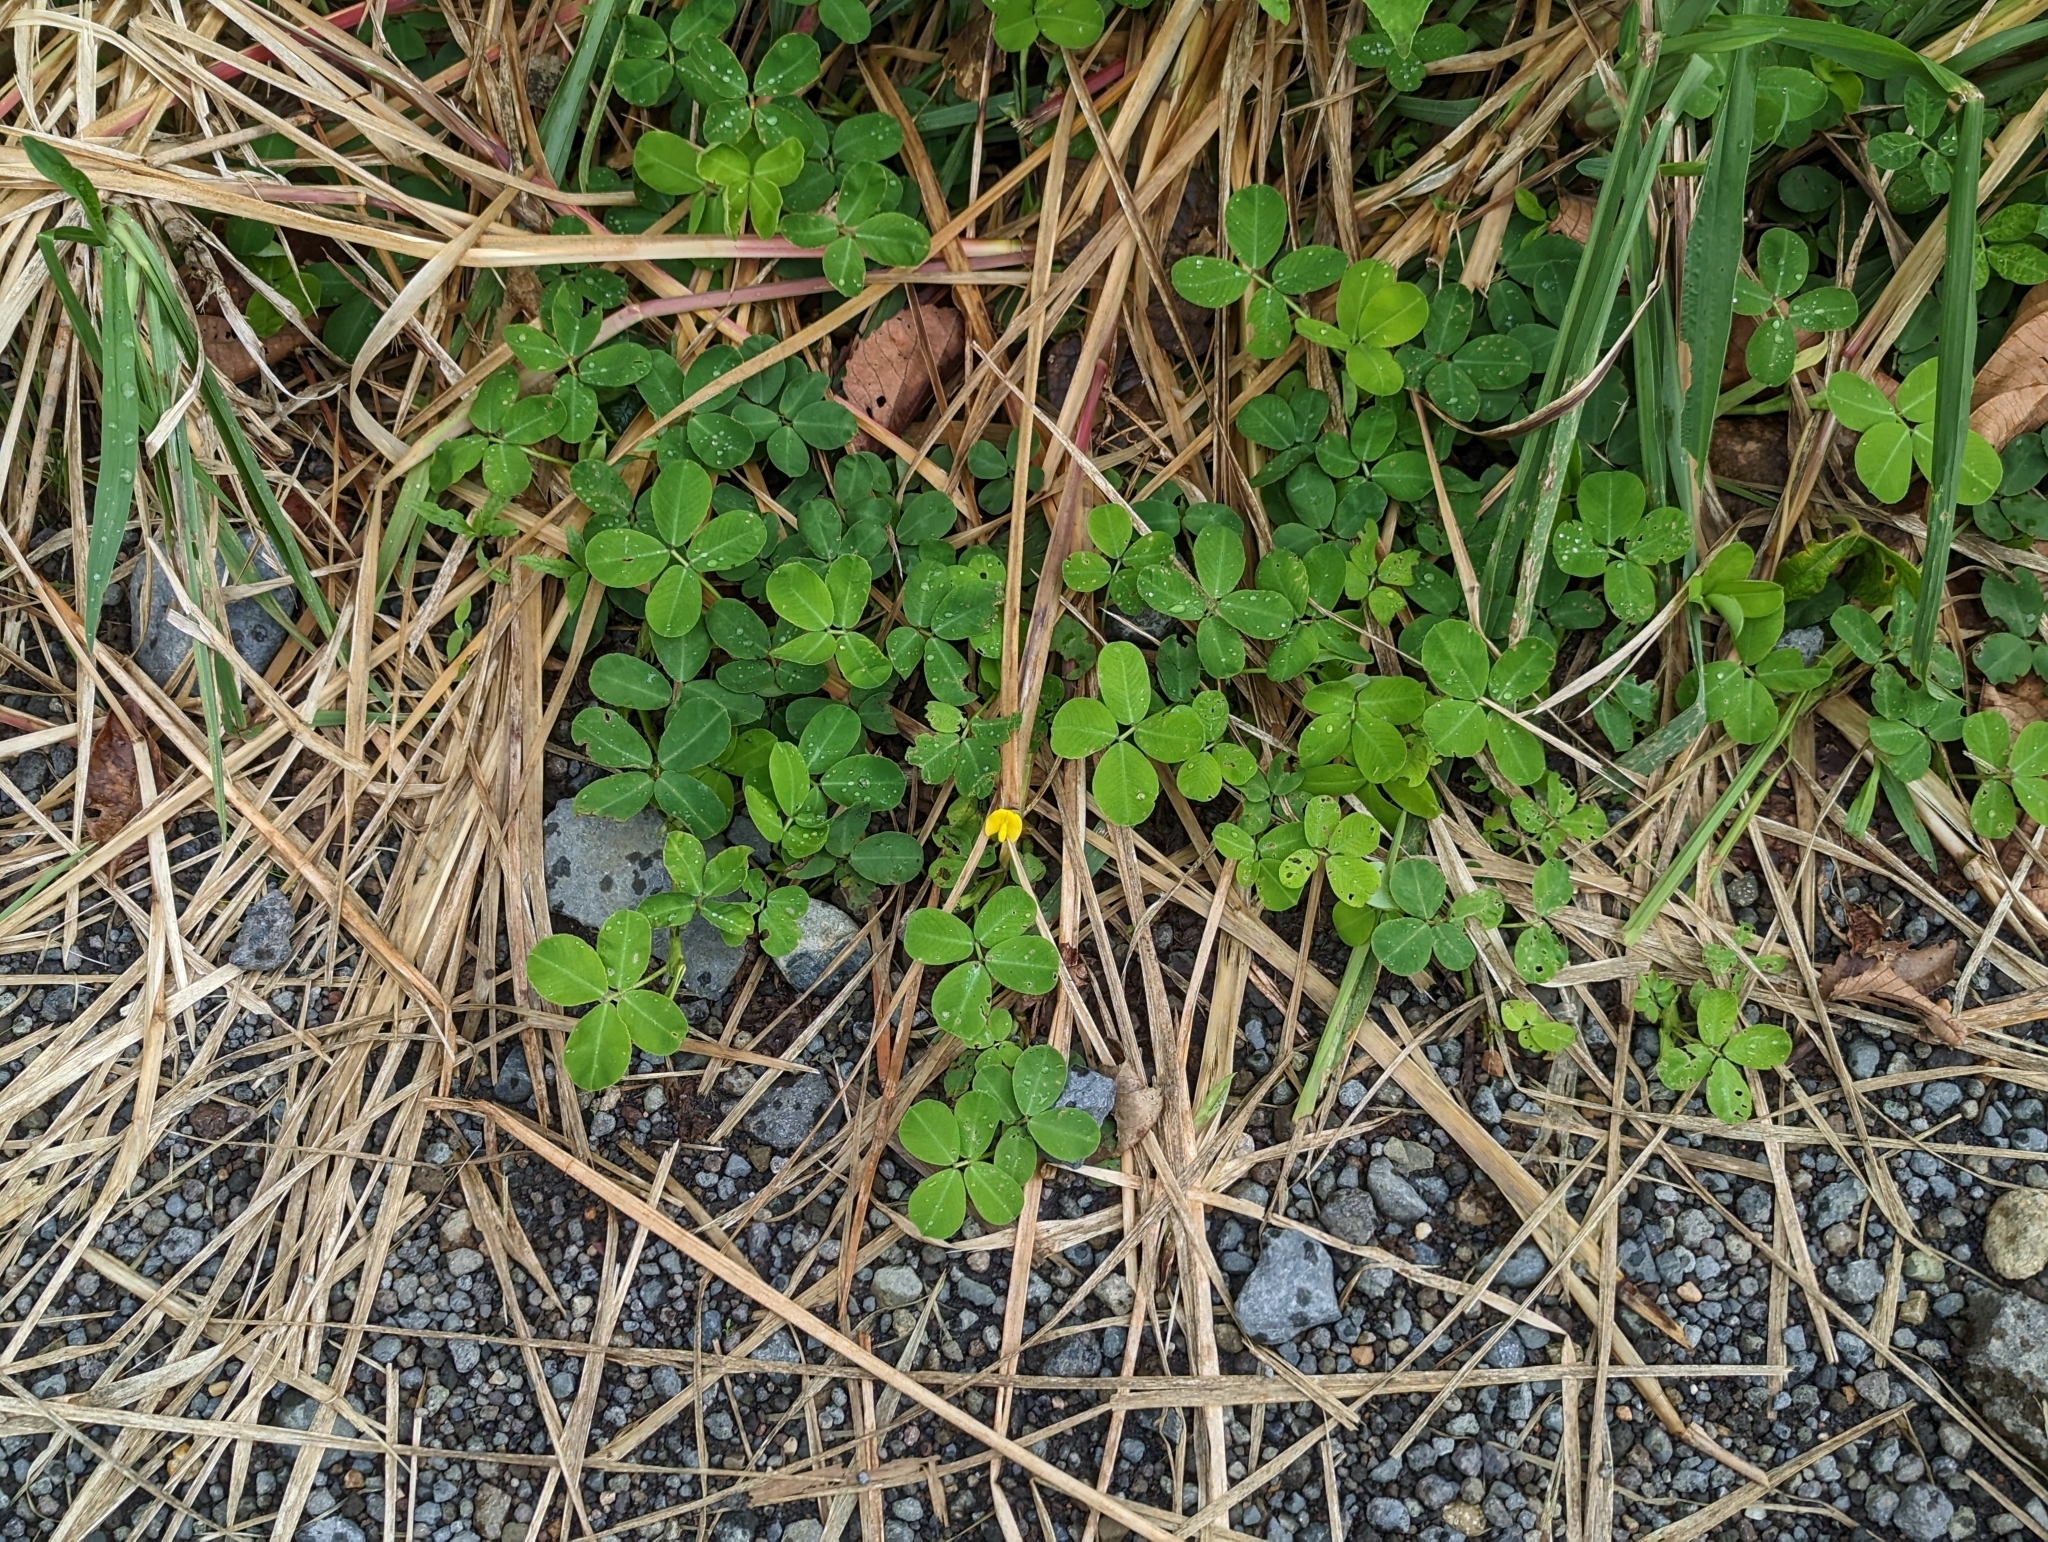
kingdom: Plantae
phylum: Tracheophyta
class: Magnoliopsida
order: Fabales
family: Fabaceae
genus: Arachis
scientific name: Arachis pintoi
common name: Pinto peanut
